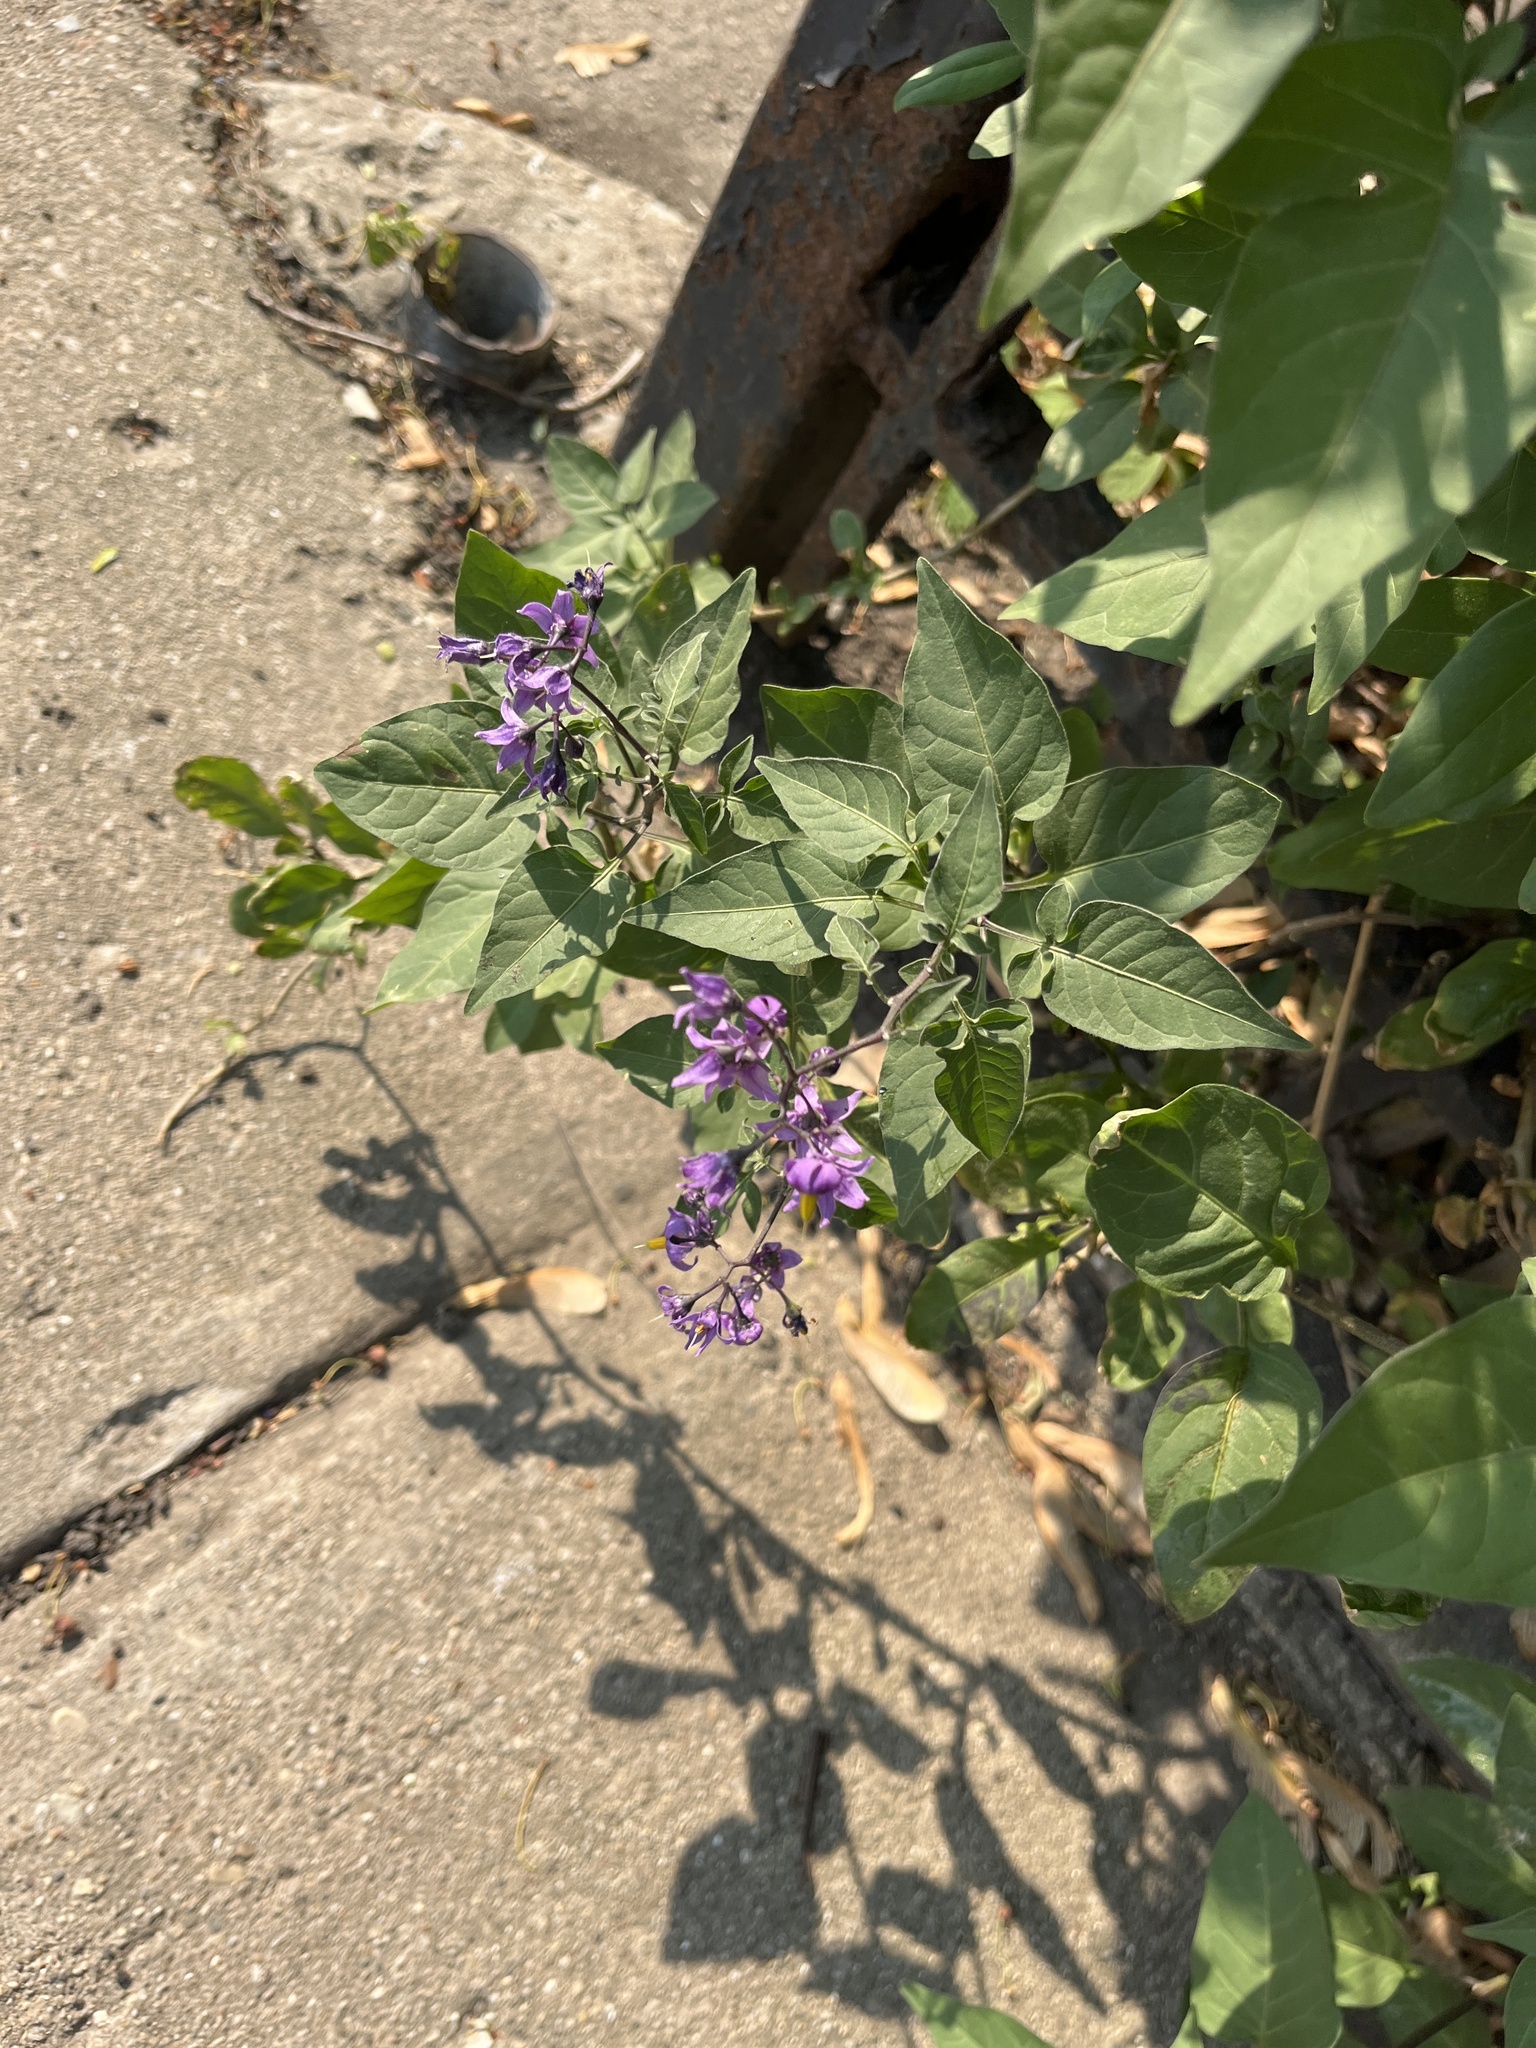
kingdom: Plantae
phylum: Tracheophyta
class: Magnoliopsida
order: Solanales
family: Solanaceae
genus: Solanum
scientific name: Solanum dulcamara
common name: Climbing nightshade
